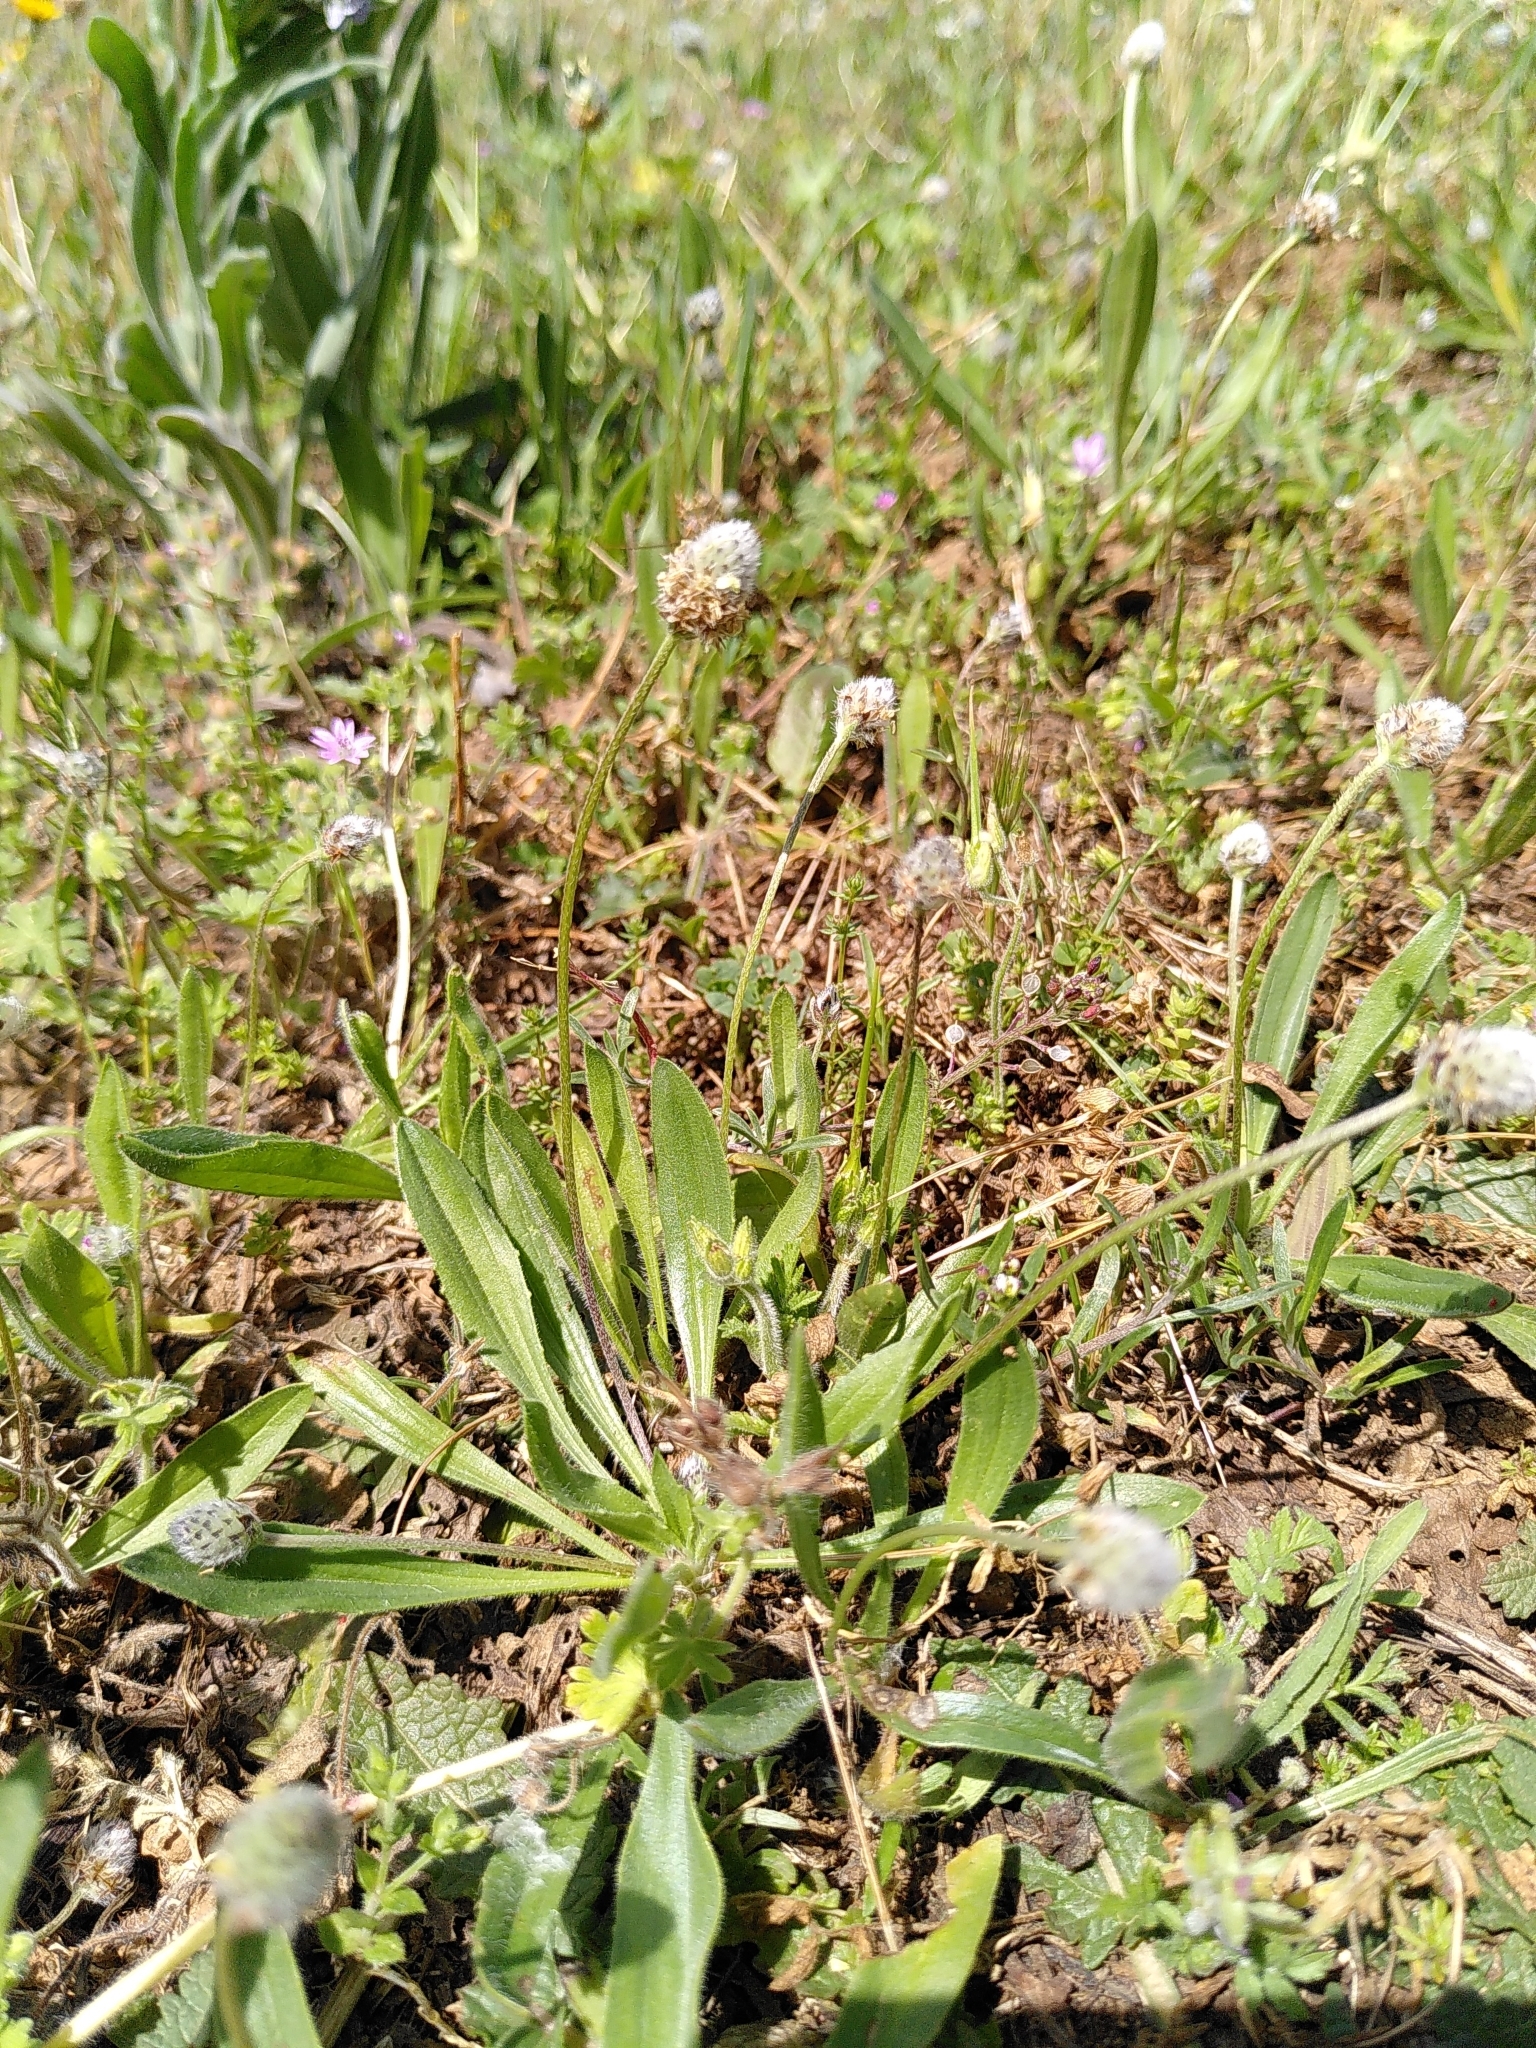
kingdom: Plantae
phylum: Tracheophyta
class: Magnoliopsida
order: Lamiales
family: Plantaginaceae
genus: Plantago
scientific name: Plantago lagopus
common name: Hare-foot plantain
